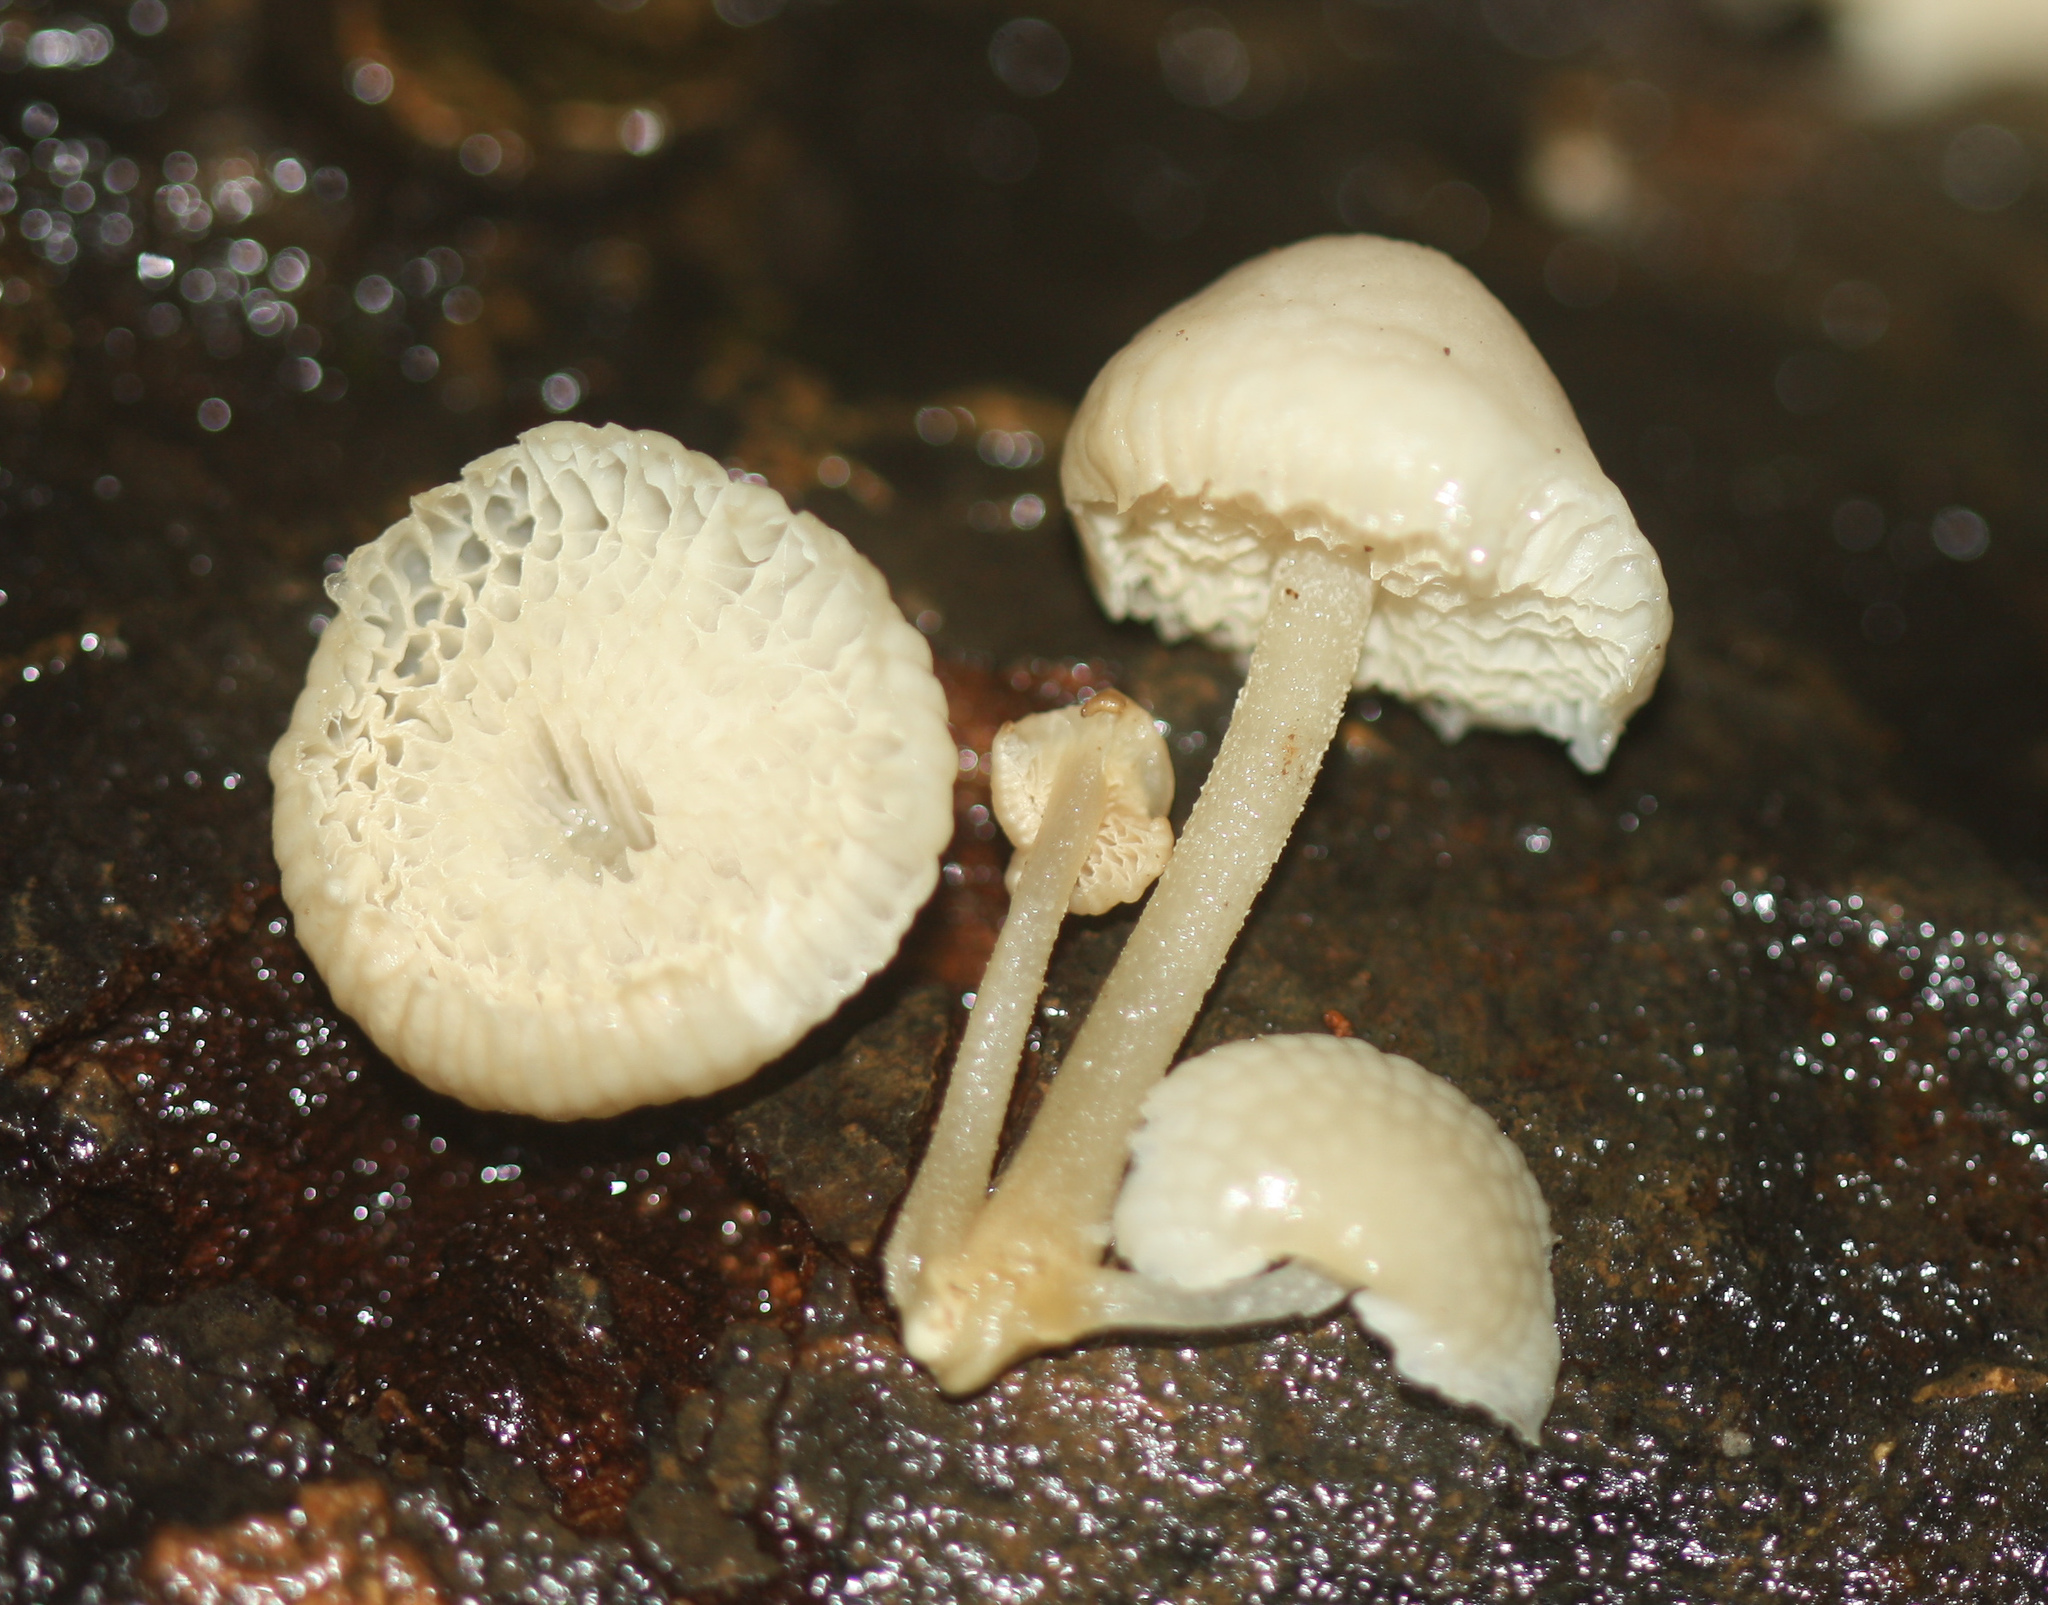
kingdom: Fungi
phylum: Basidiomycota
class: Agaricomycetes
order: Agaricales
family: Mycenaceae
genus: Filoboletus
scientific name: Filoboletus manipularis
